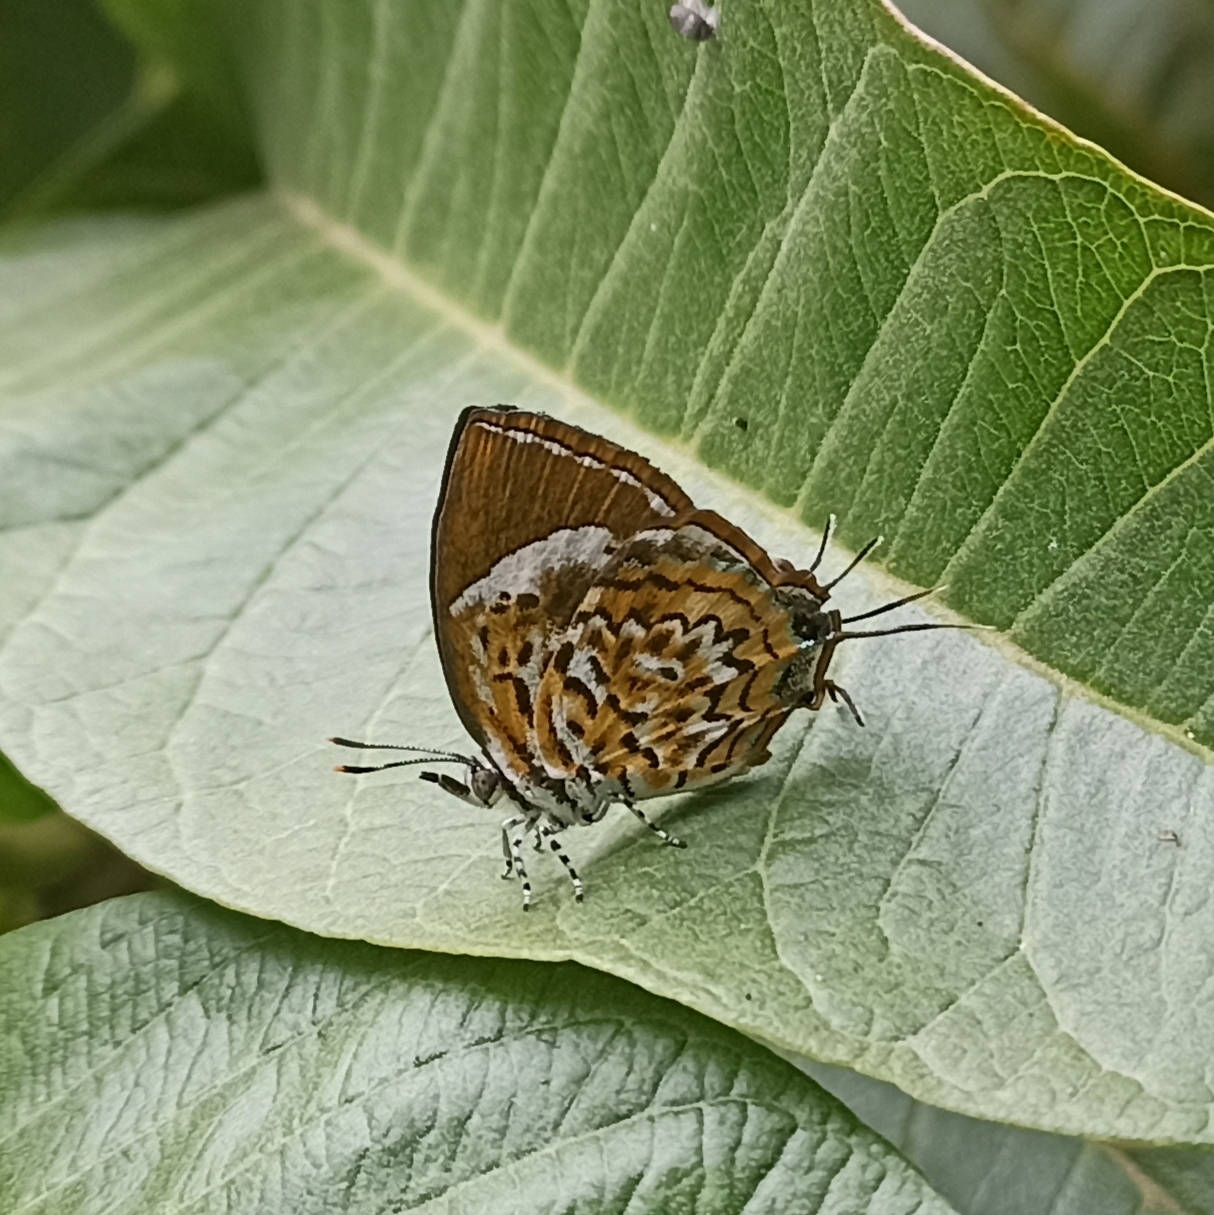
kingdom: Animalia
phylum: Arthropoda
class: Insecta
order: Lepidoptera
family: Lycaenidae
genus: Rathinda
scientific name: Rathinda amor
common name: Monkey puzzle
